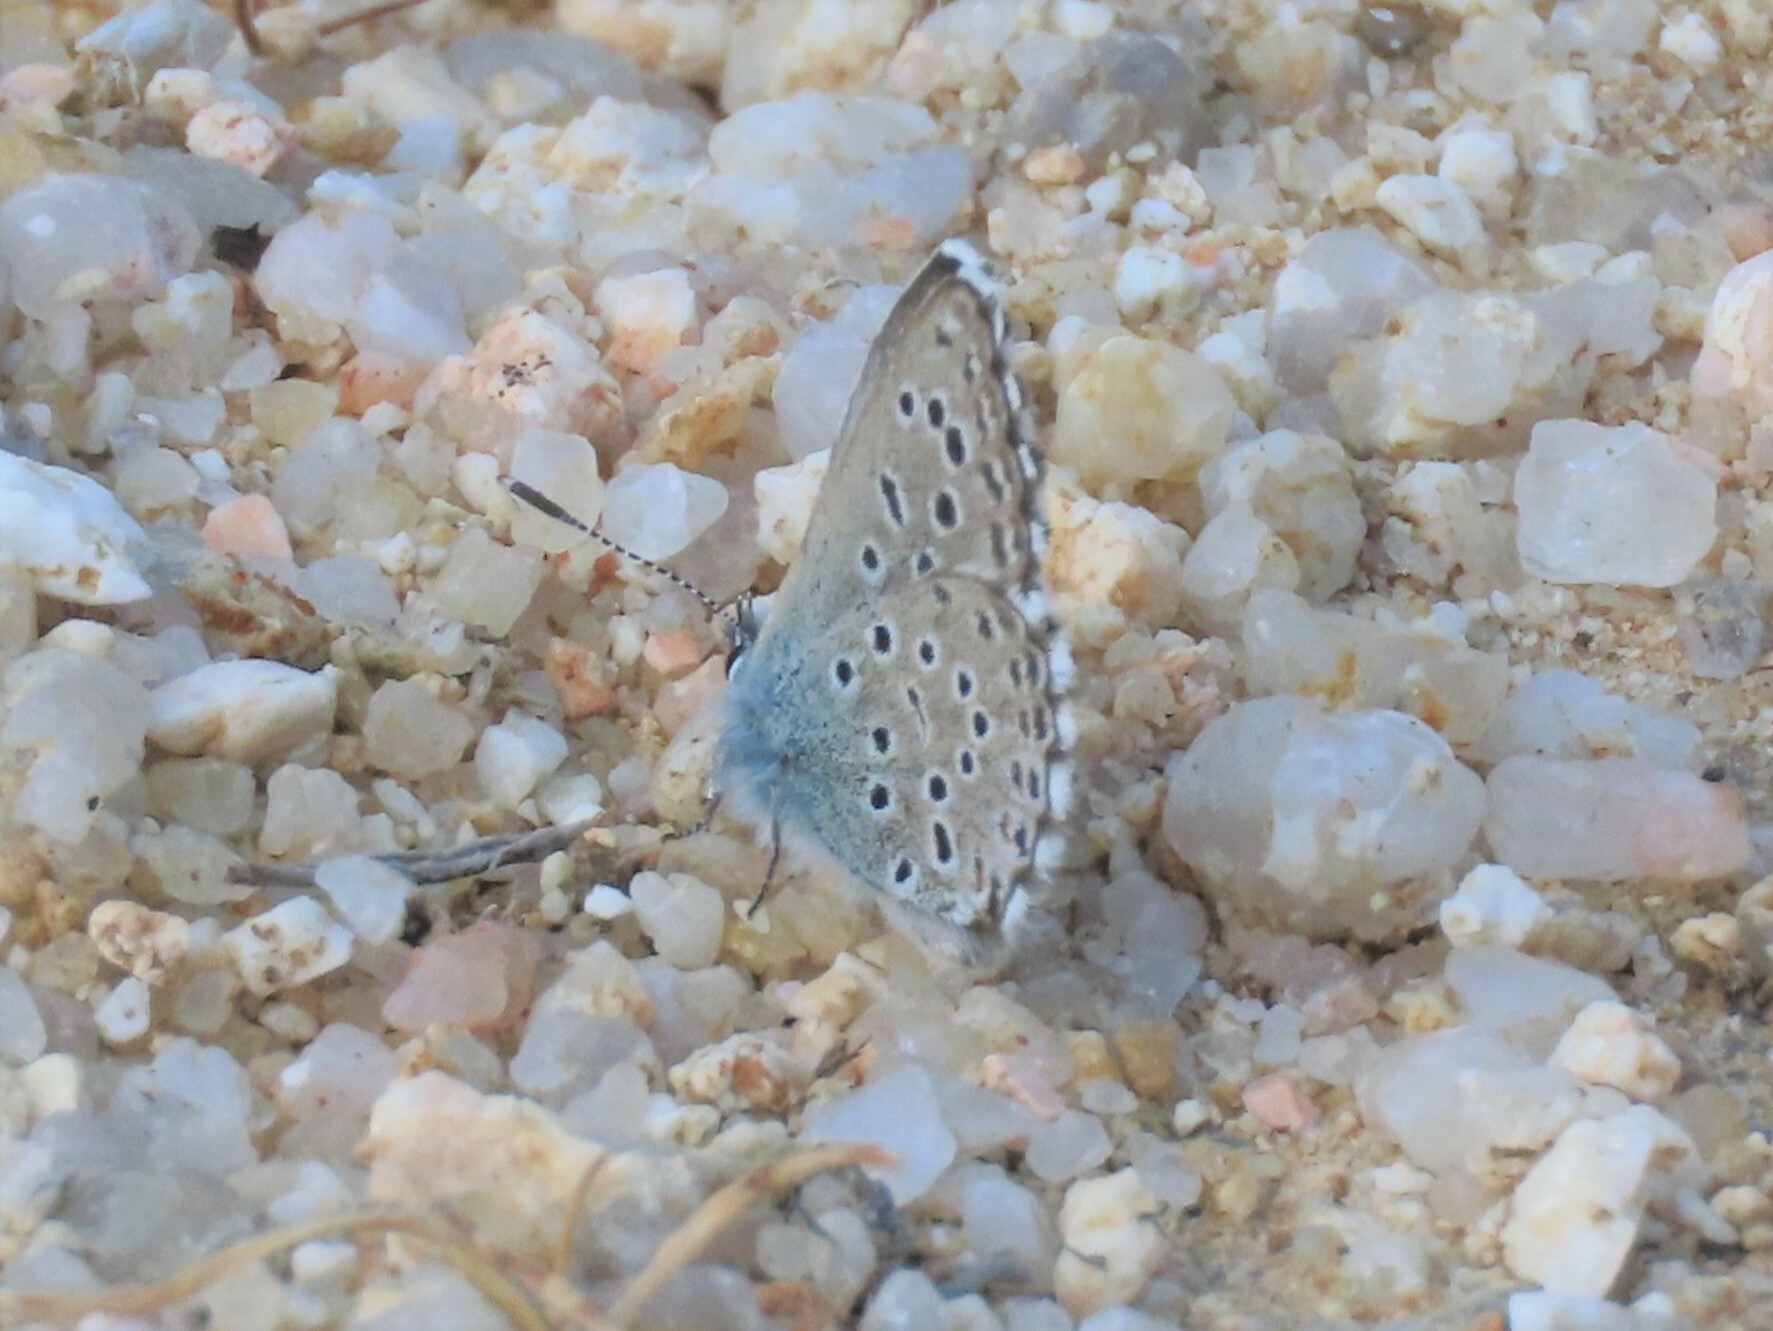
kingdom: Animalia
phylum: Arthropoda
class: Insecta
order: Lepidoptera
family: Lycaenidae
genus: Pseudophilotes
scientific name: Pseudophilotes baton
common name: Baton blue
